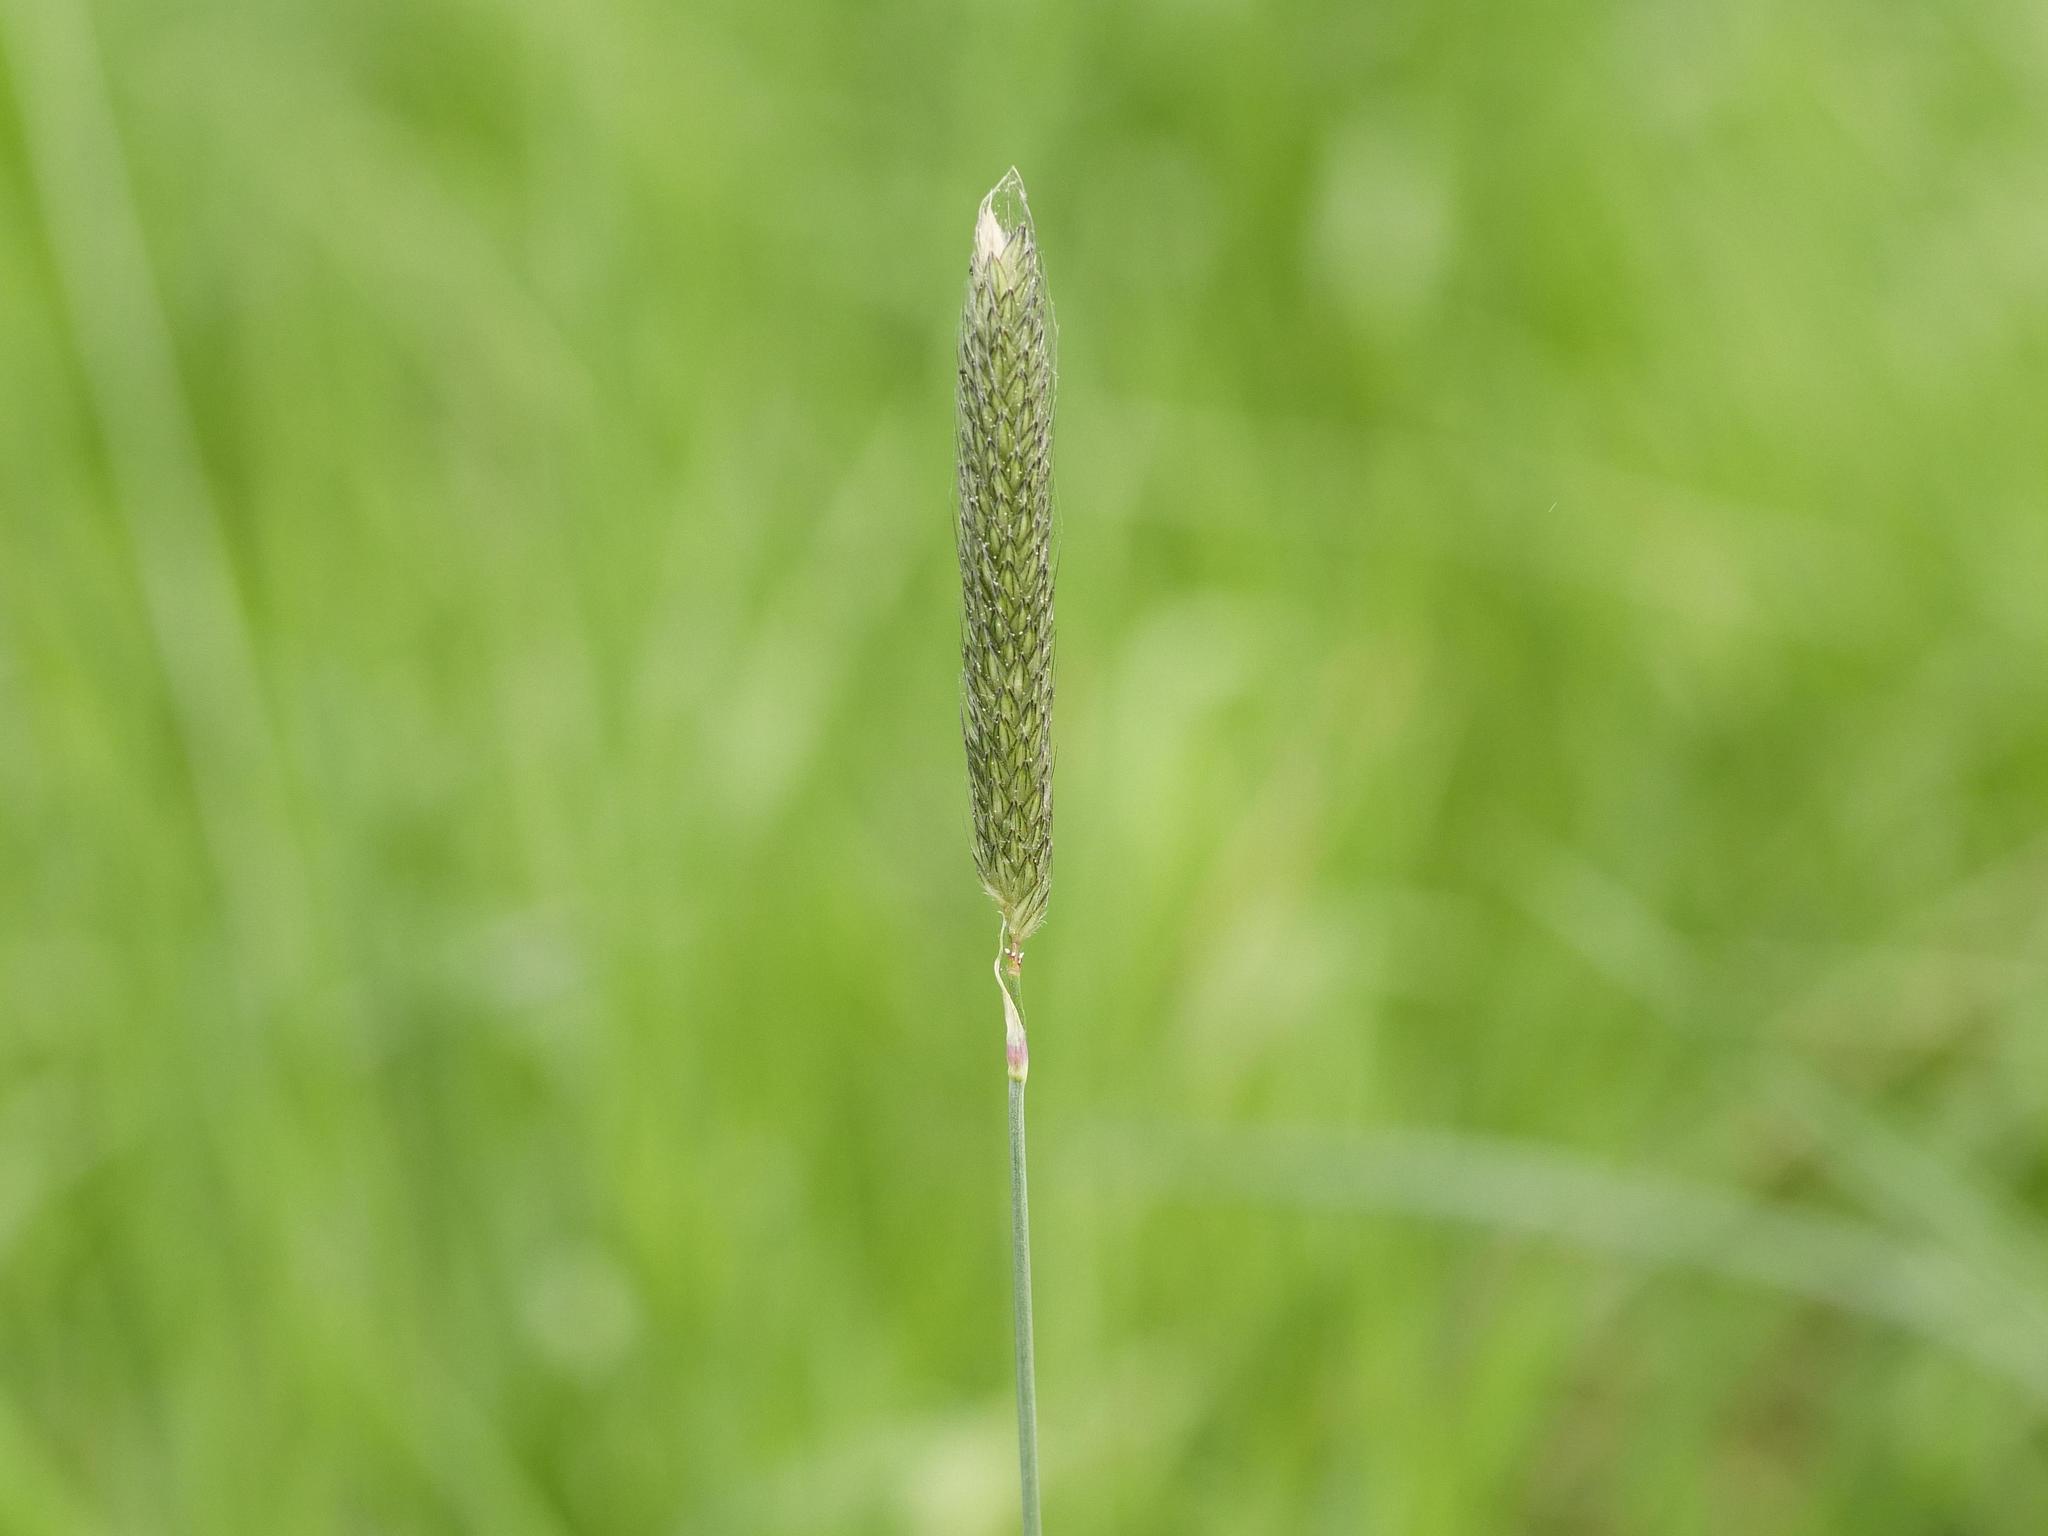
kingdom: Plantae
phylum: Tracheophyta
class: Liliopsida
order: Poales
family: Poaceae
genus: Alopecurus
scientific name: Alopecurus pratensis
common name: Meadow foxtail
